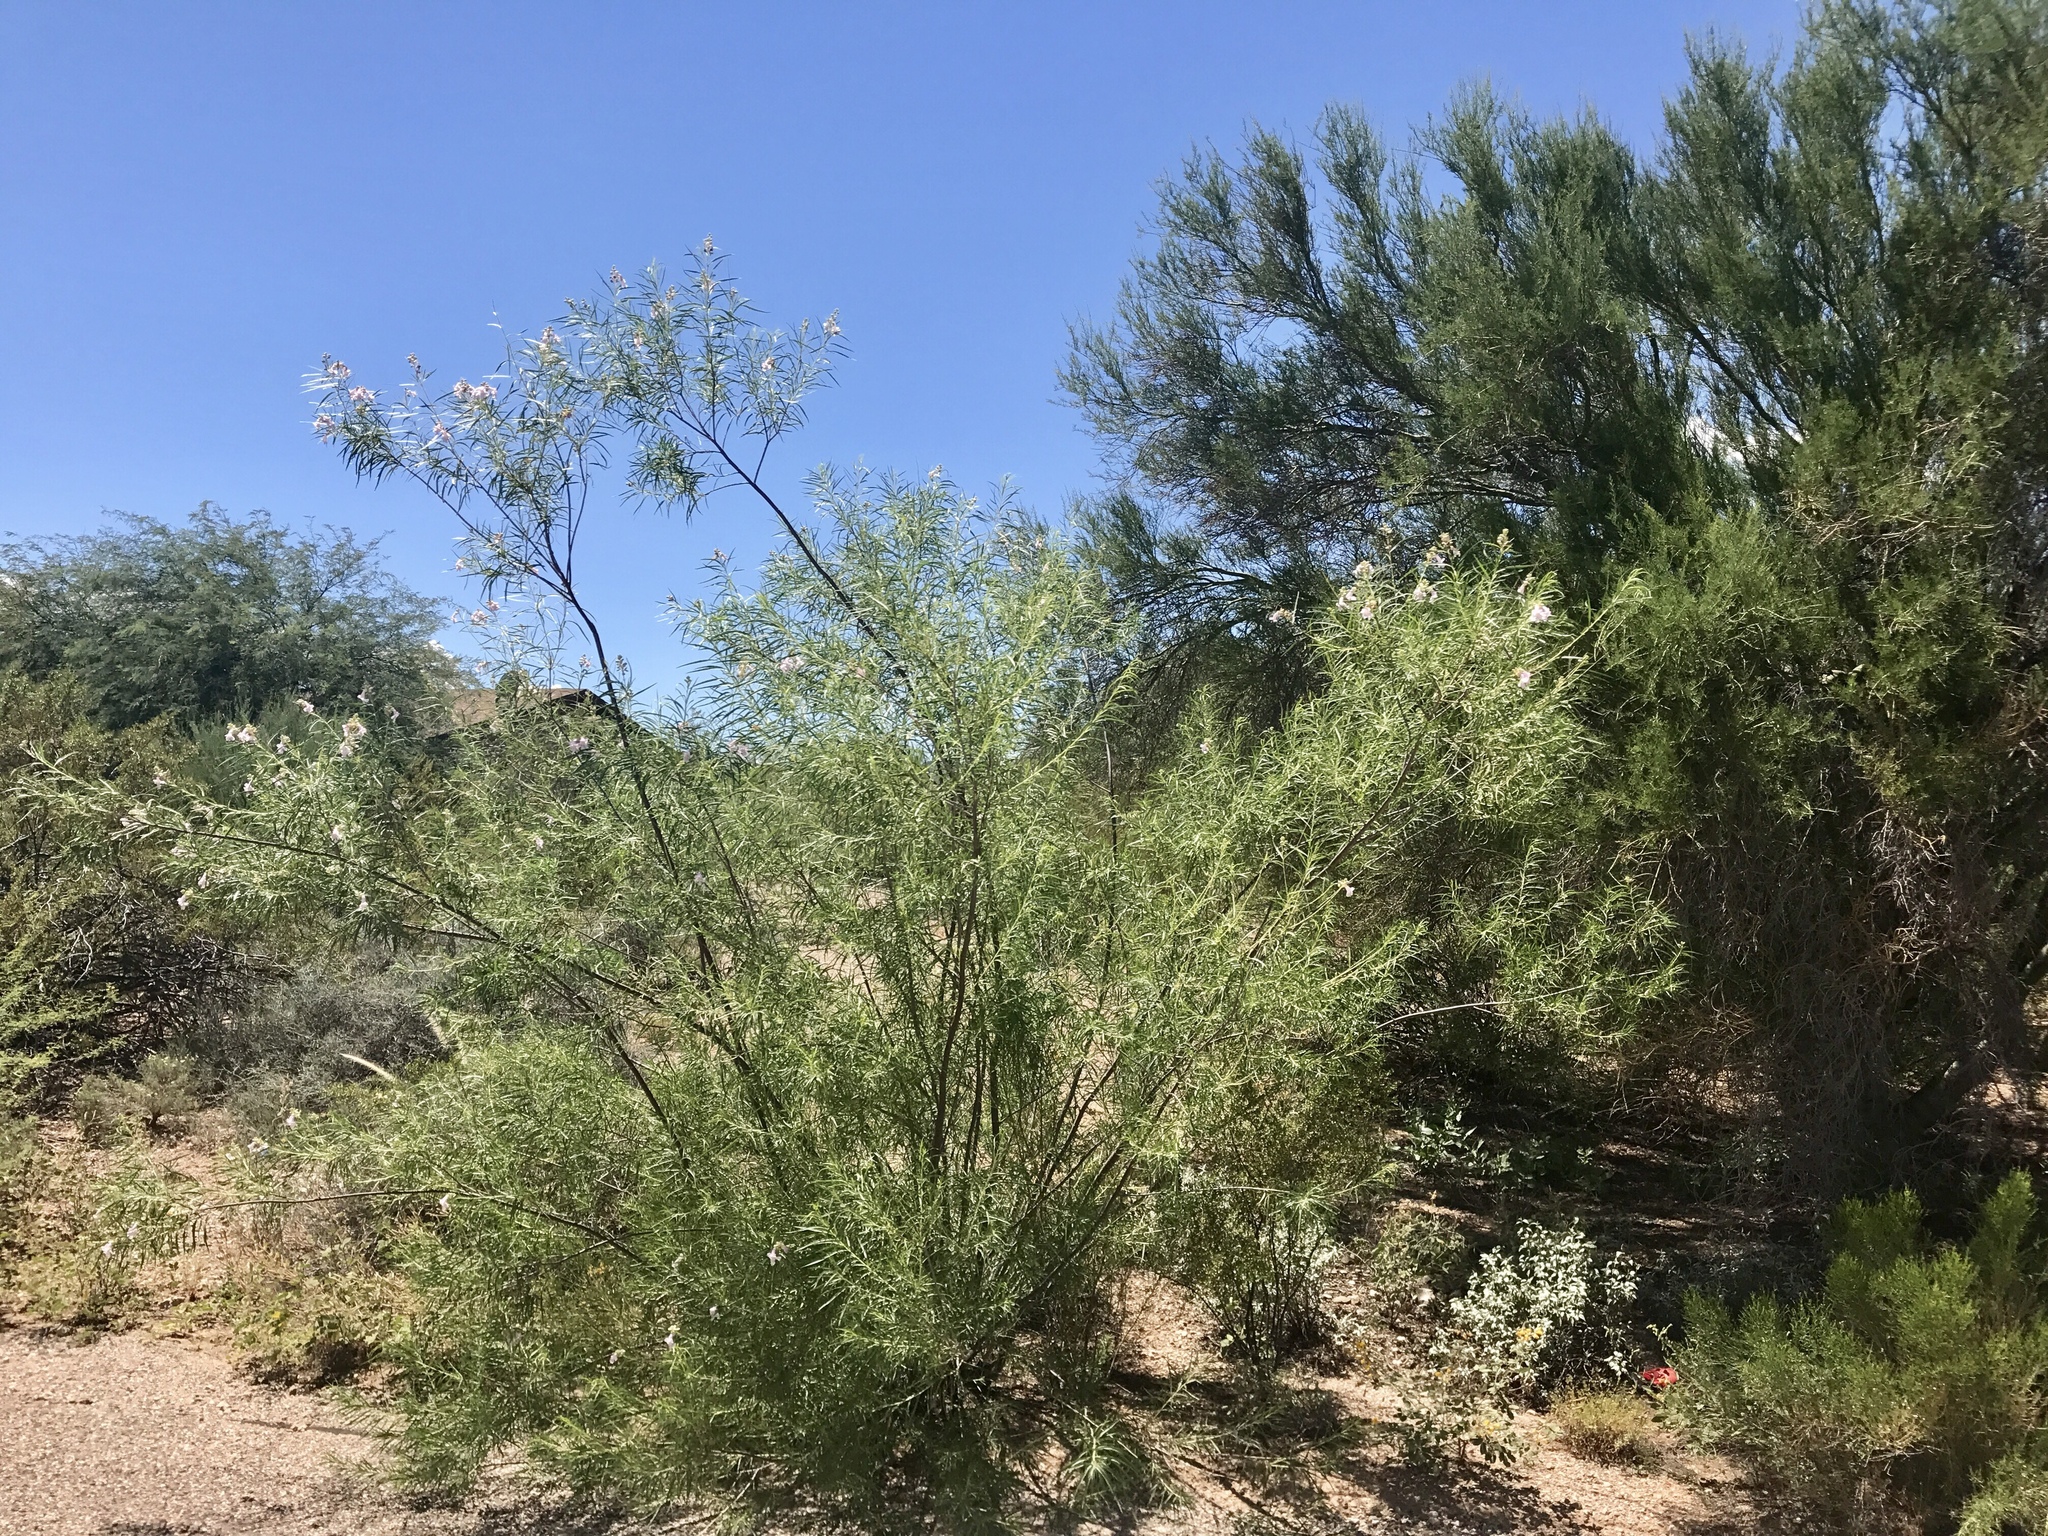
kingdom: Plantae
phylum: Tracheophyta
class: Magnoliopsida
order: Lamiales
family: Bignoniaceae
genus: Chilopsis
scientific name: Chilopsis linearis
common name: Desert-willow
